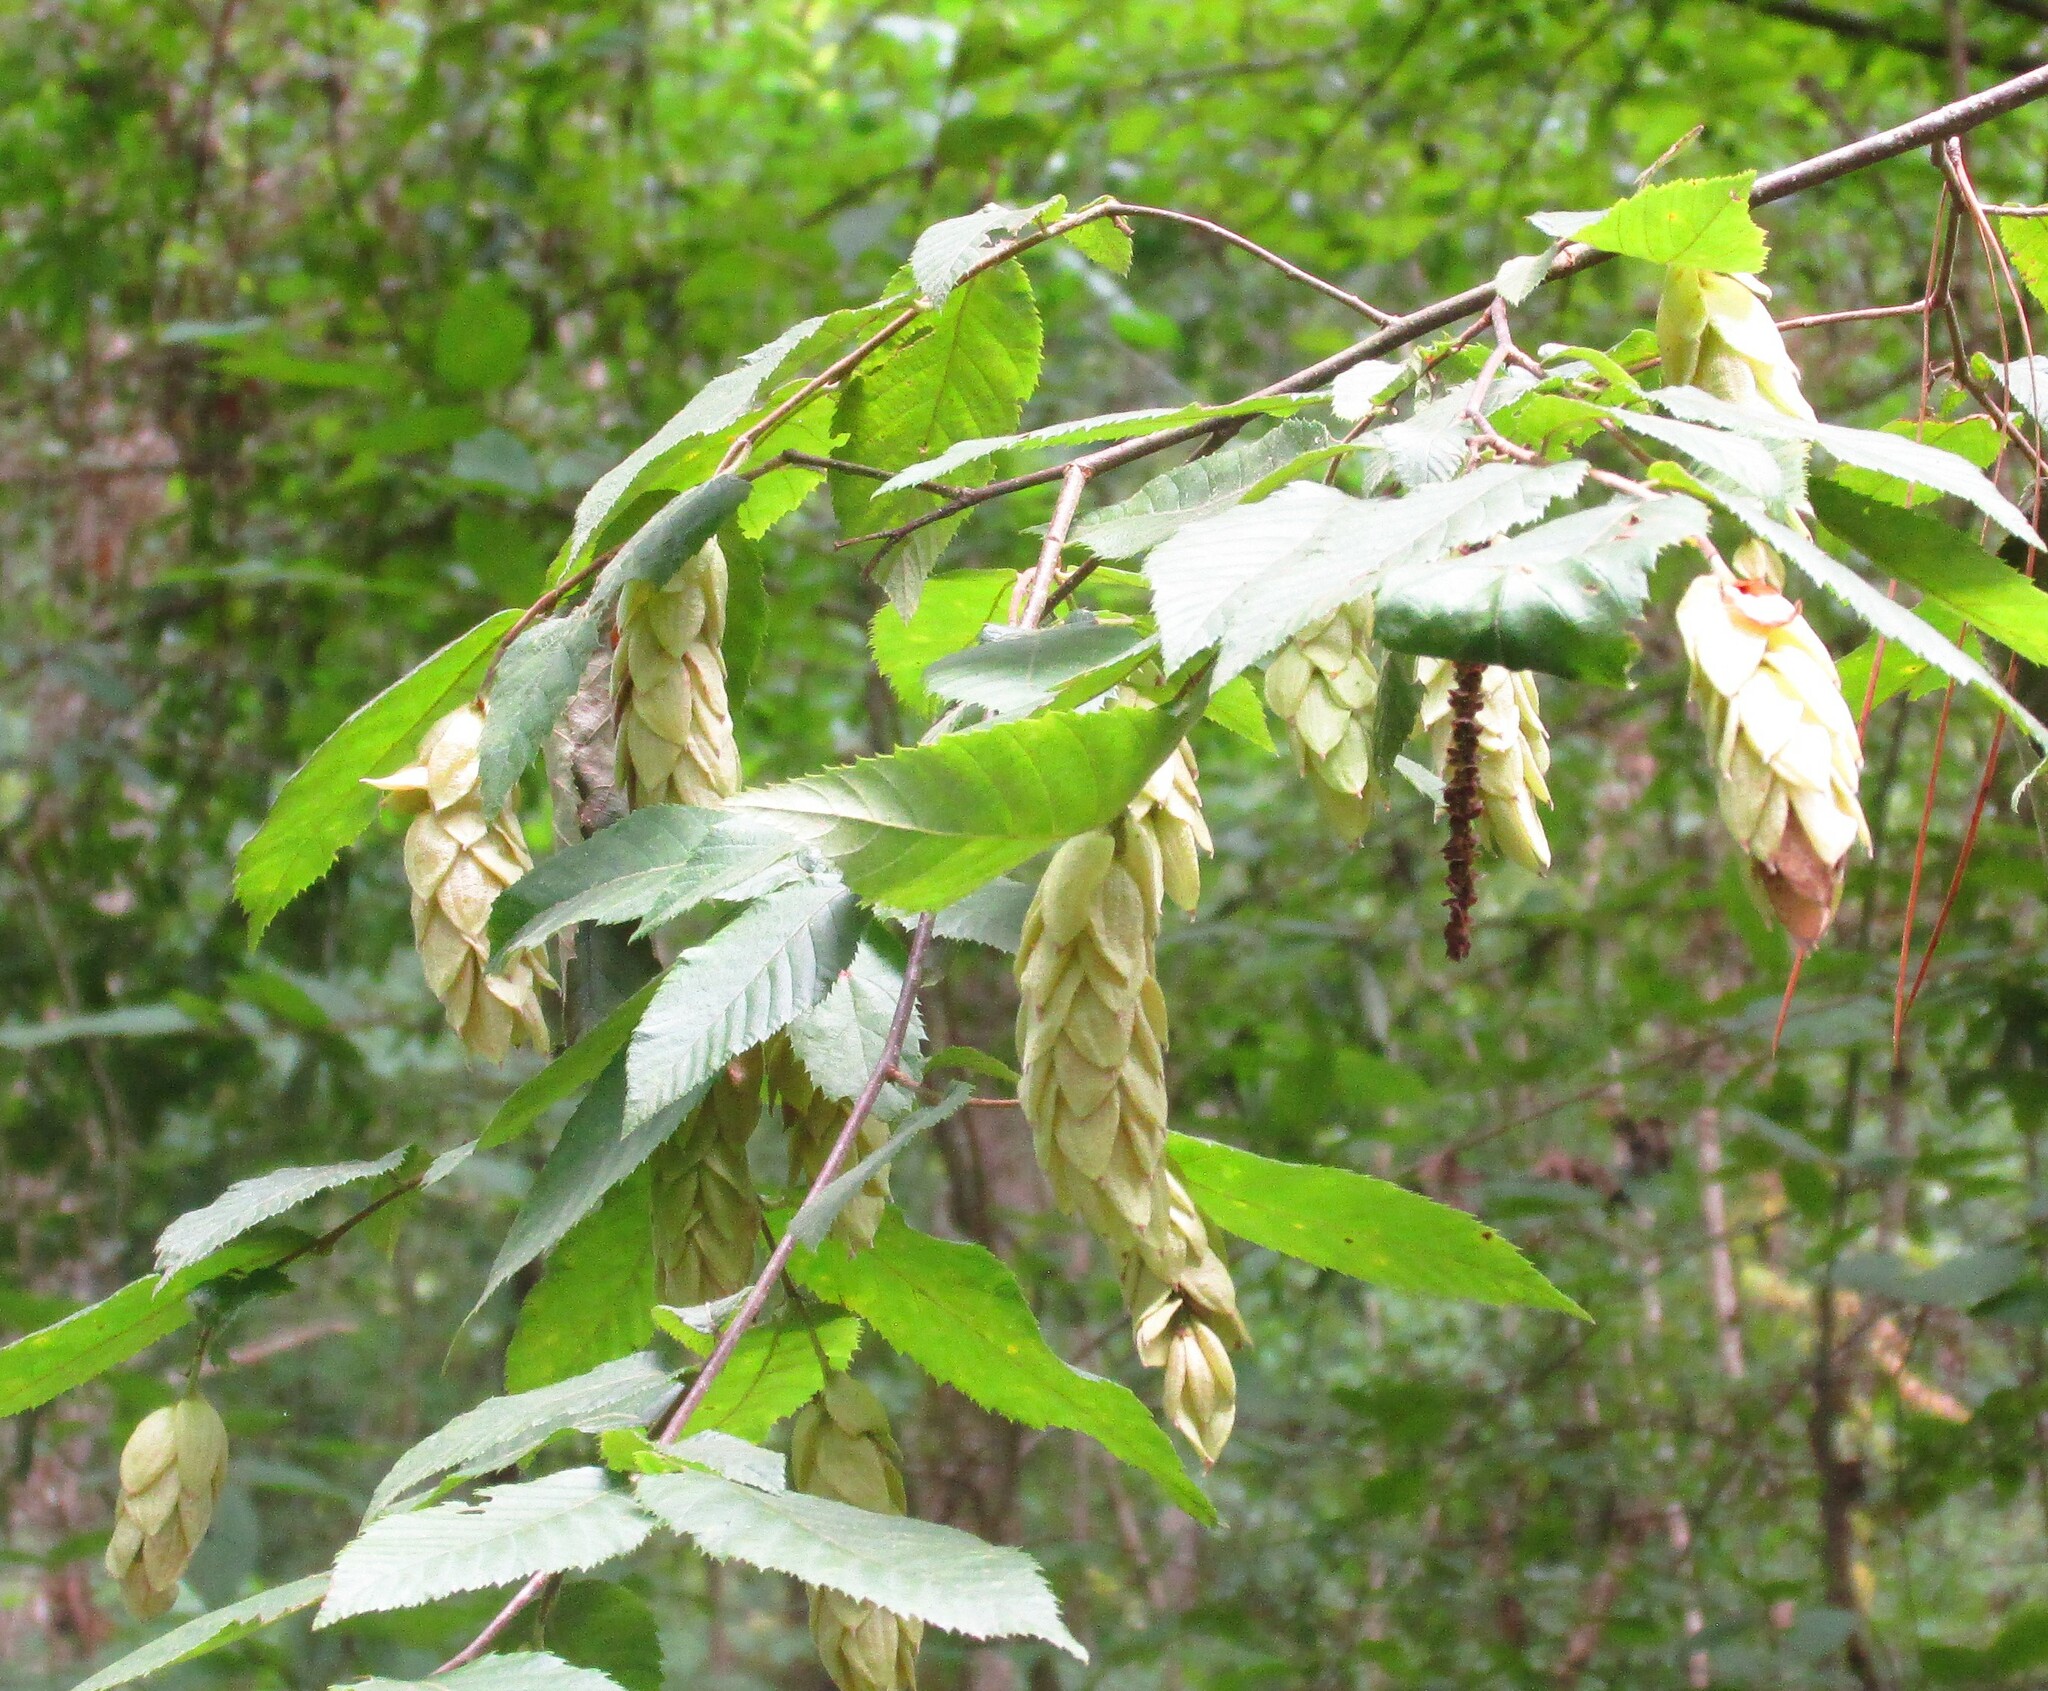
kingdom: Plantae
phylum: Tracheophyta
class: Magnoliopsida
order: Fagales
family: Betulaceae
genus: Ostrya
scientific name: Ostrya virginiana
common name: Ironwood
